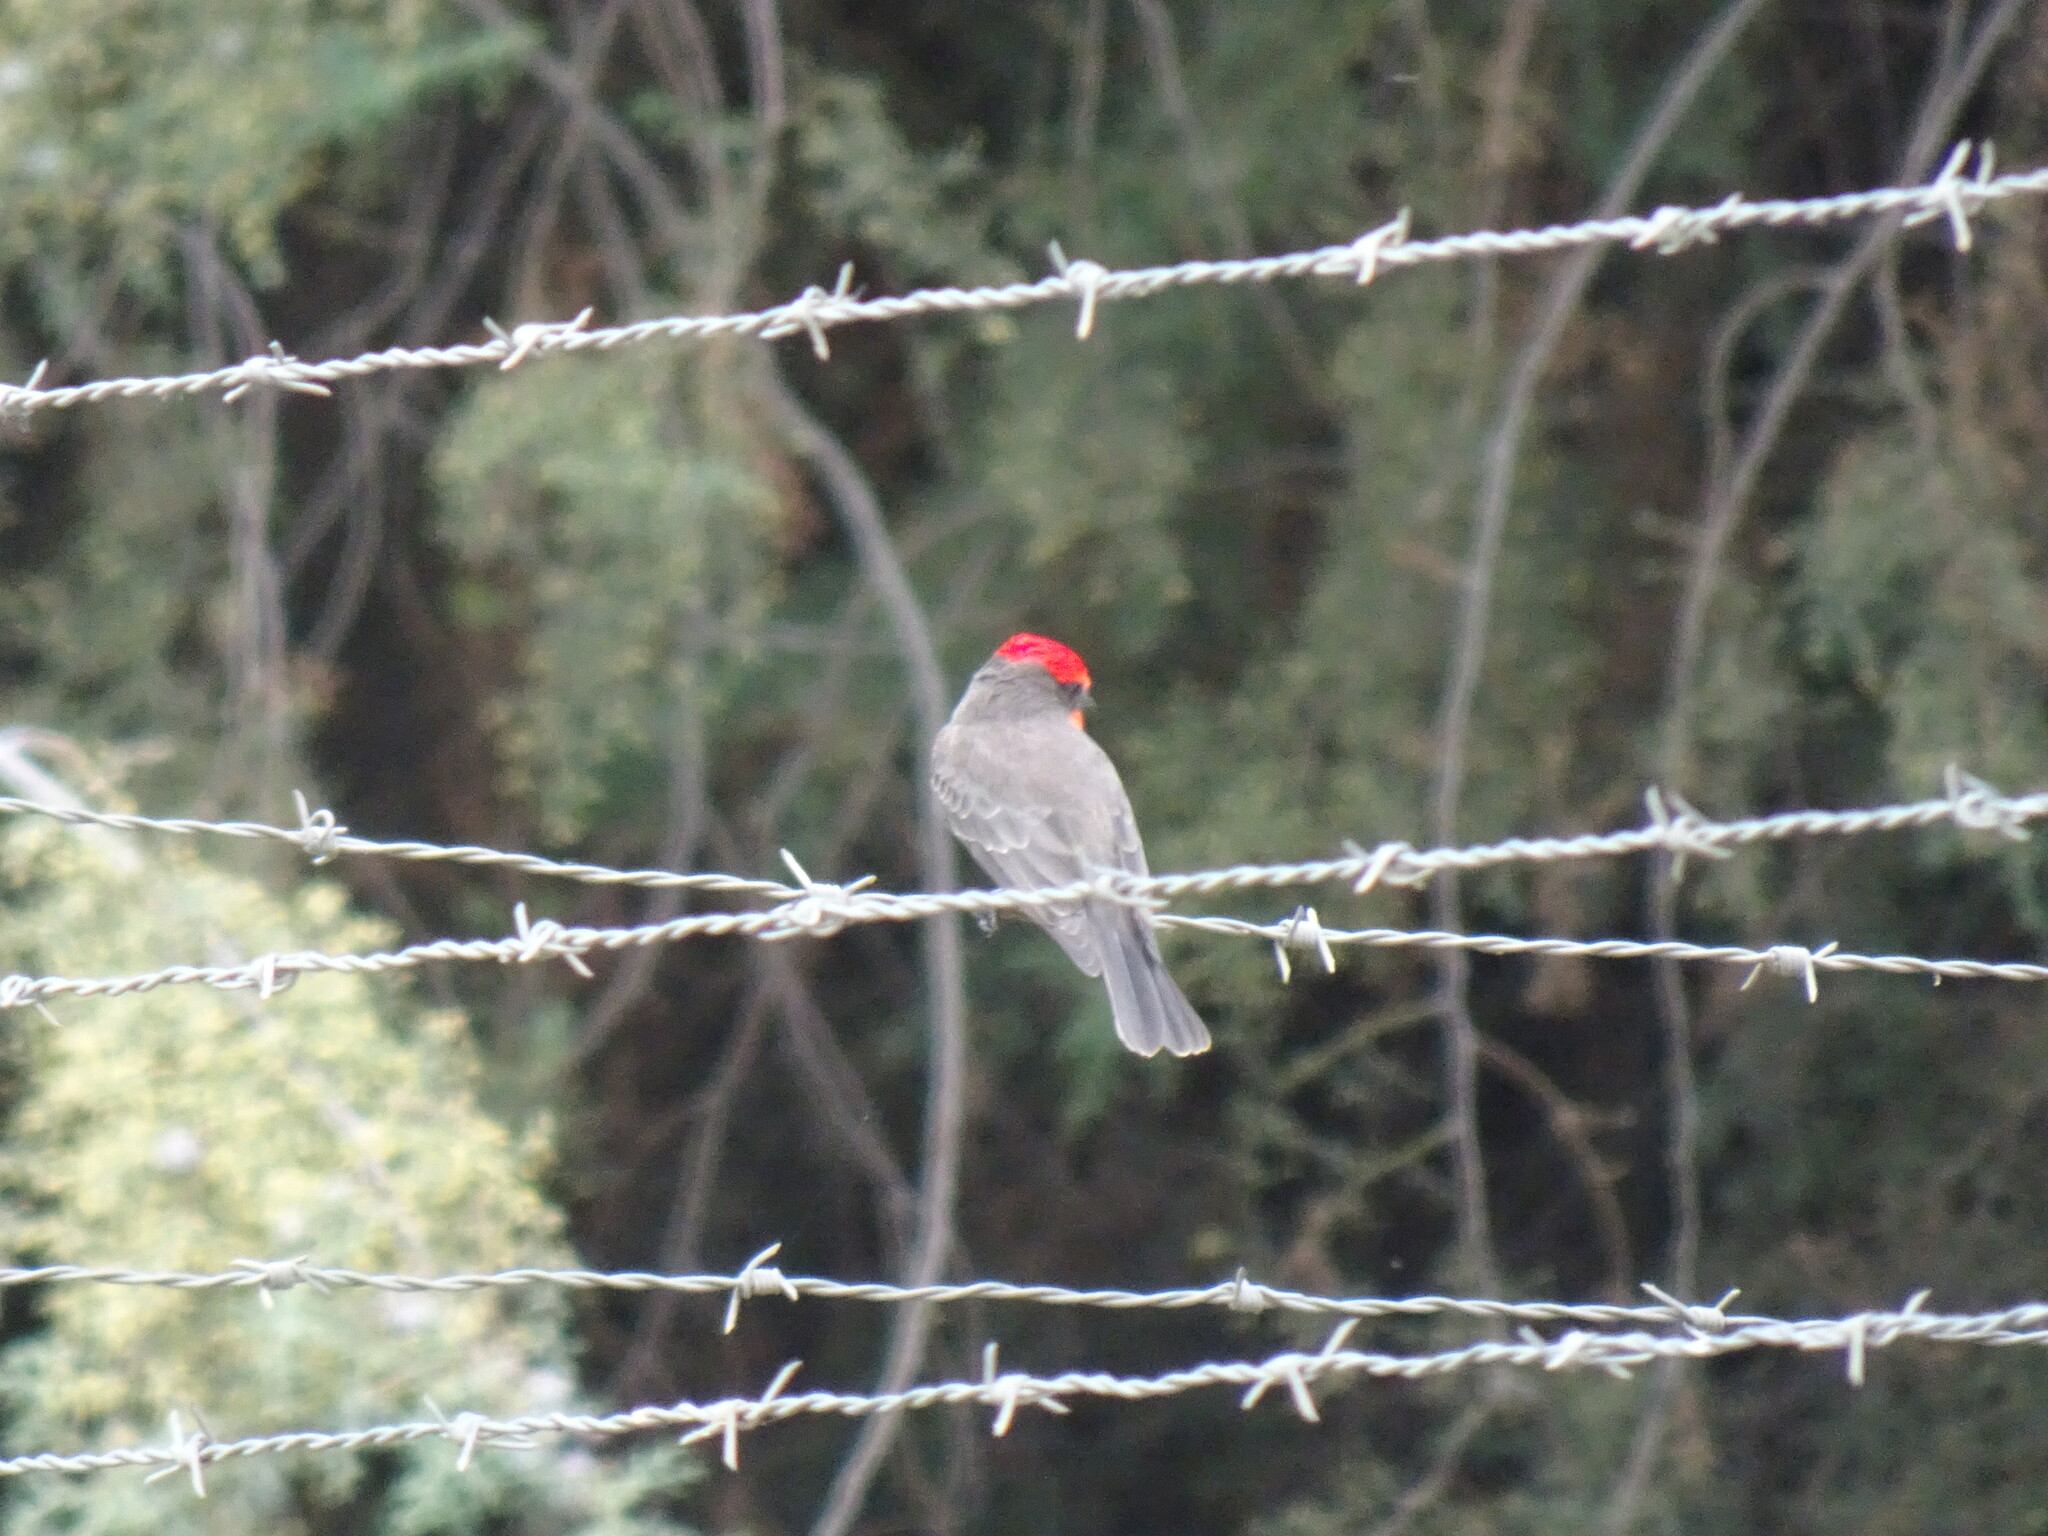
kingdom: Animalia
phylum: Chordata
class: Aves
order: Passeriformes
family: Tyrannidae
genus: Pyrocephalus
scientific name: Pyrocephalus rubinus
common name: Vermilion flycatcher
